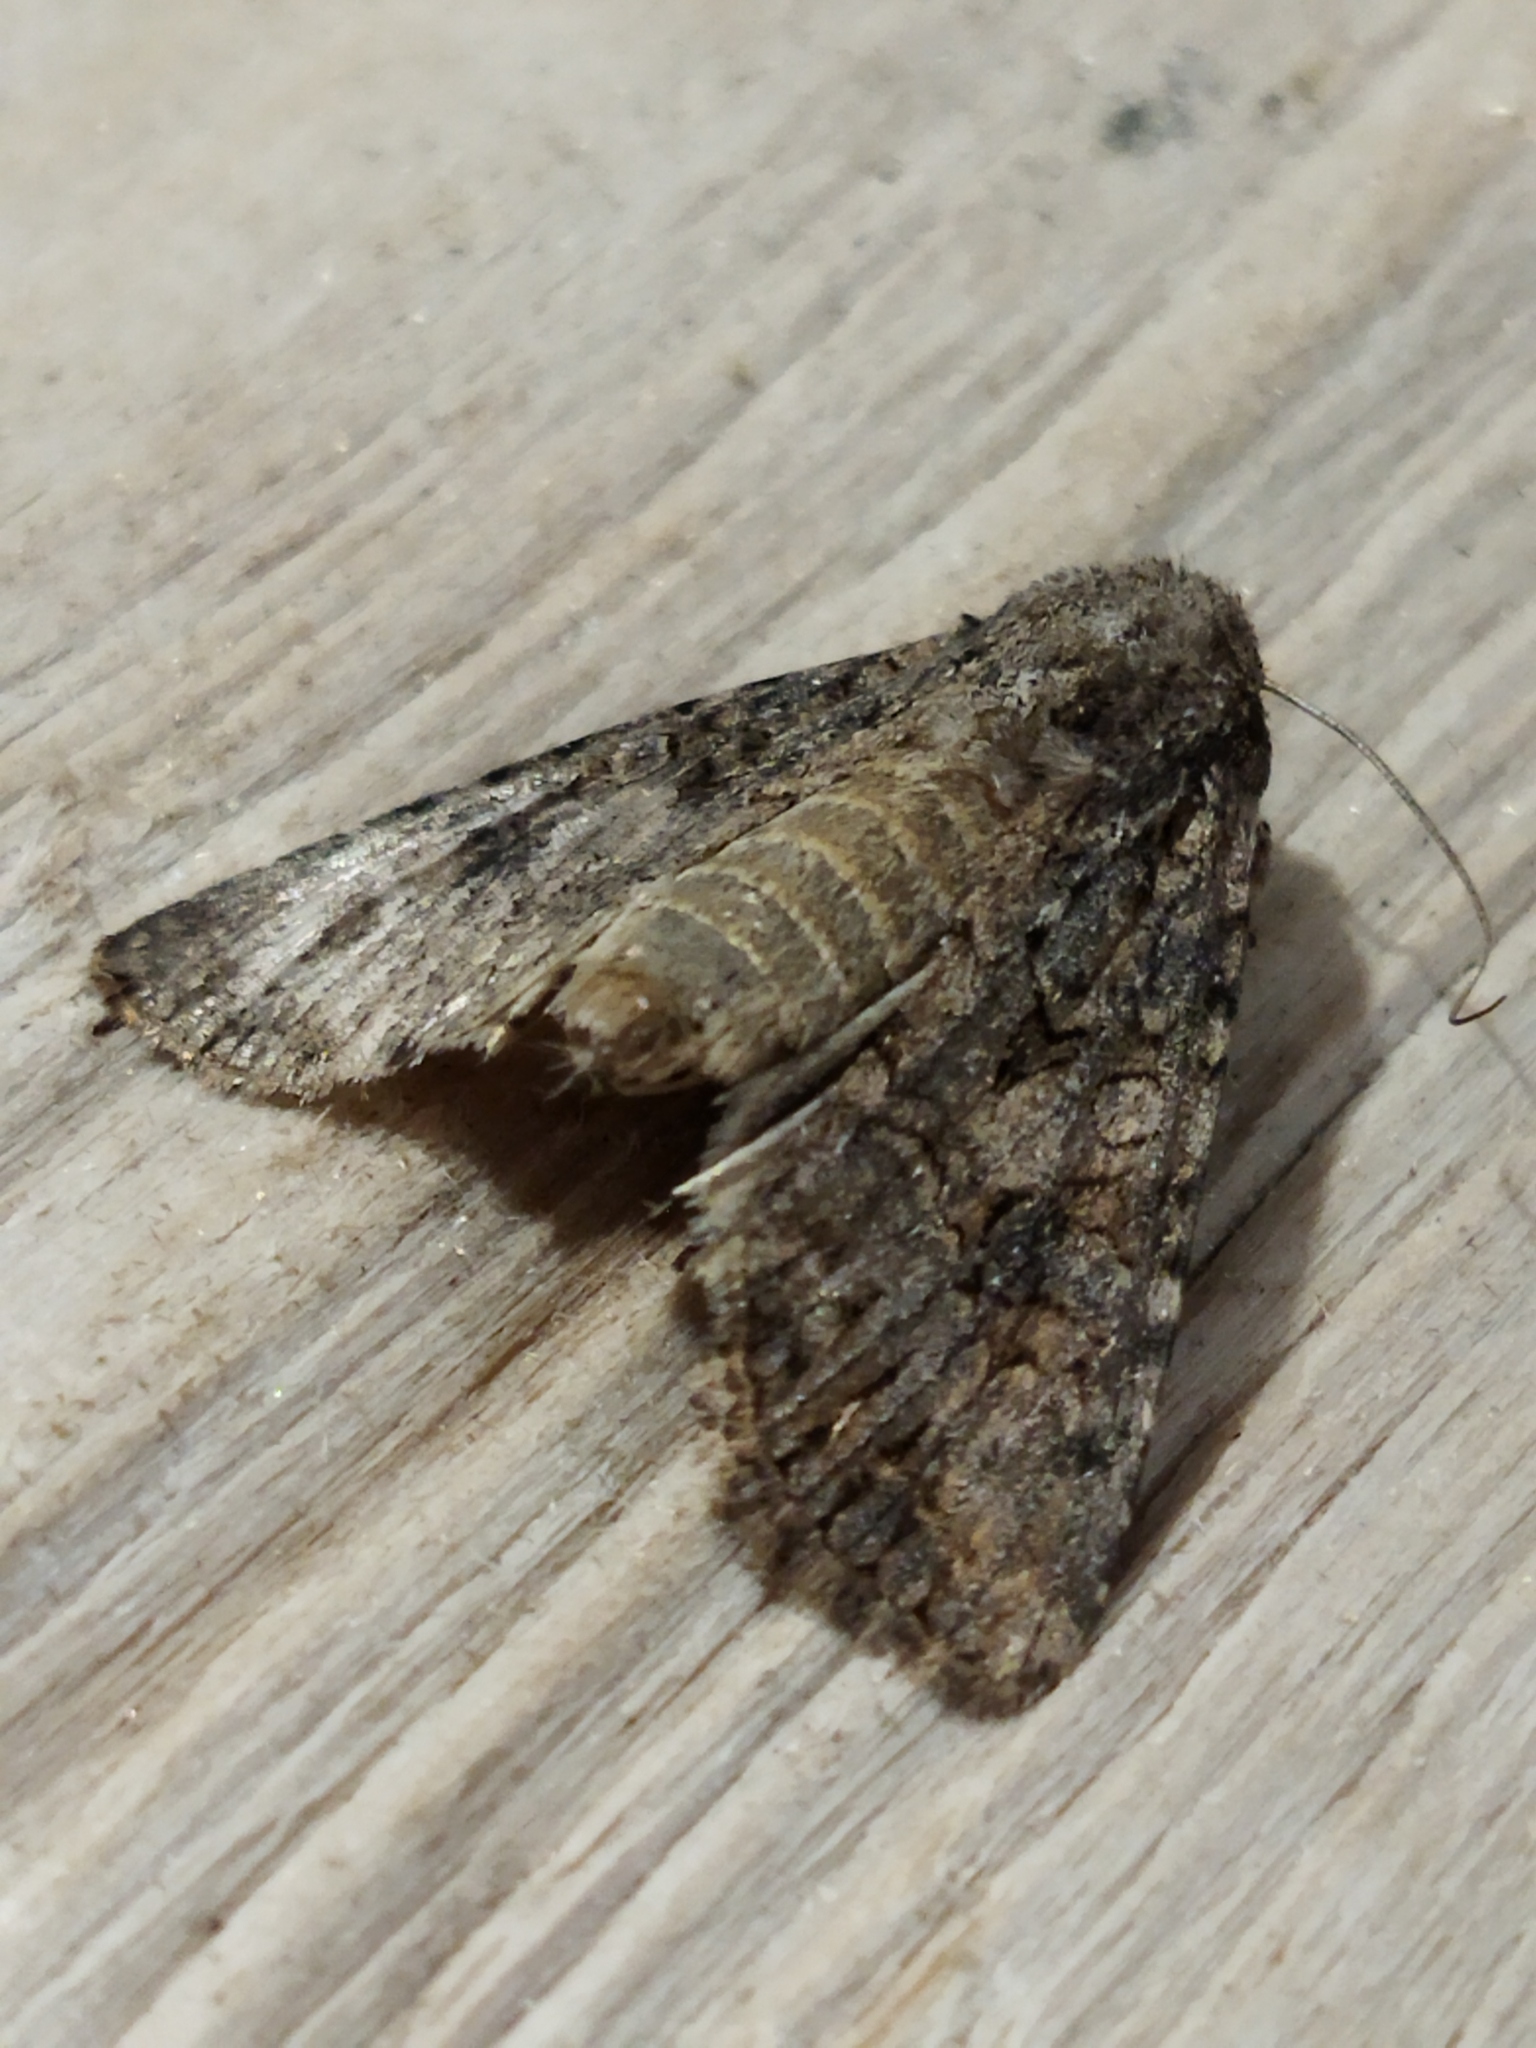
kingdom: Animalia
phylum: Arthropoda
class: Insecta
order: Lepidoptera
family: Noctuidae
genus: Anarta
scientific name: Anarta trifolii
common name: Clover cutworm moth
